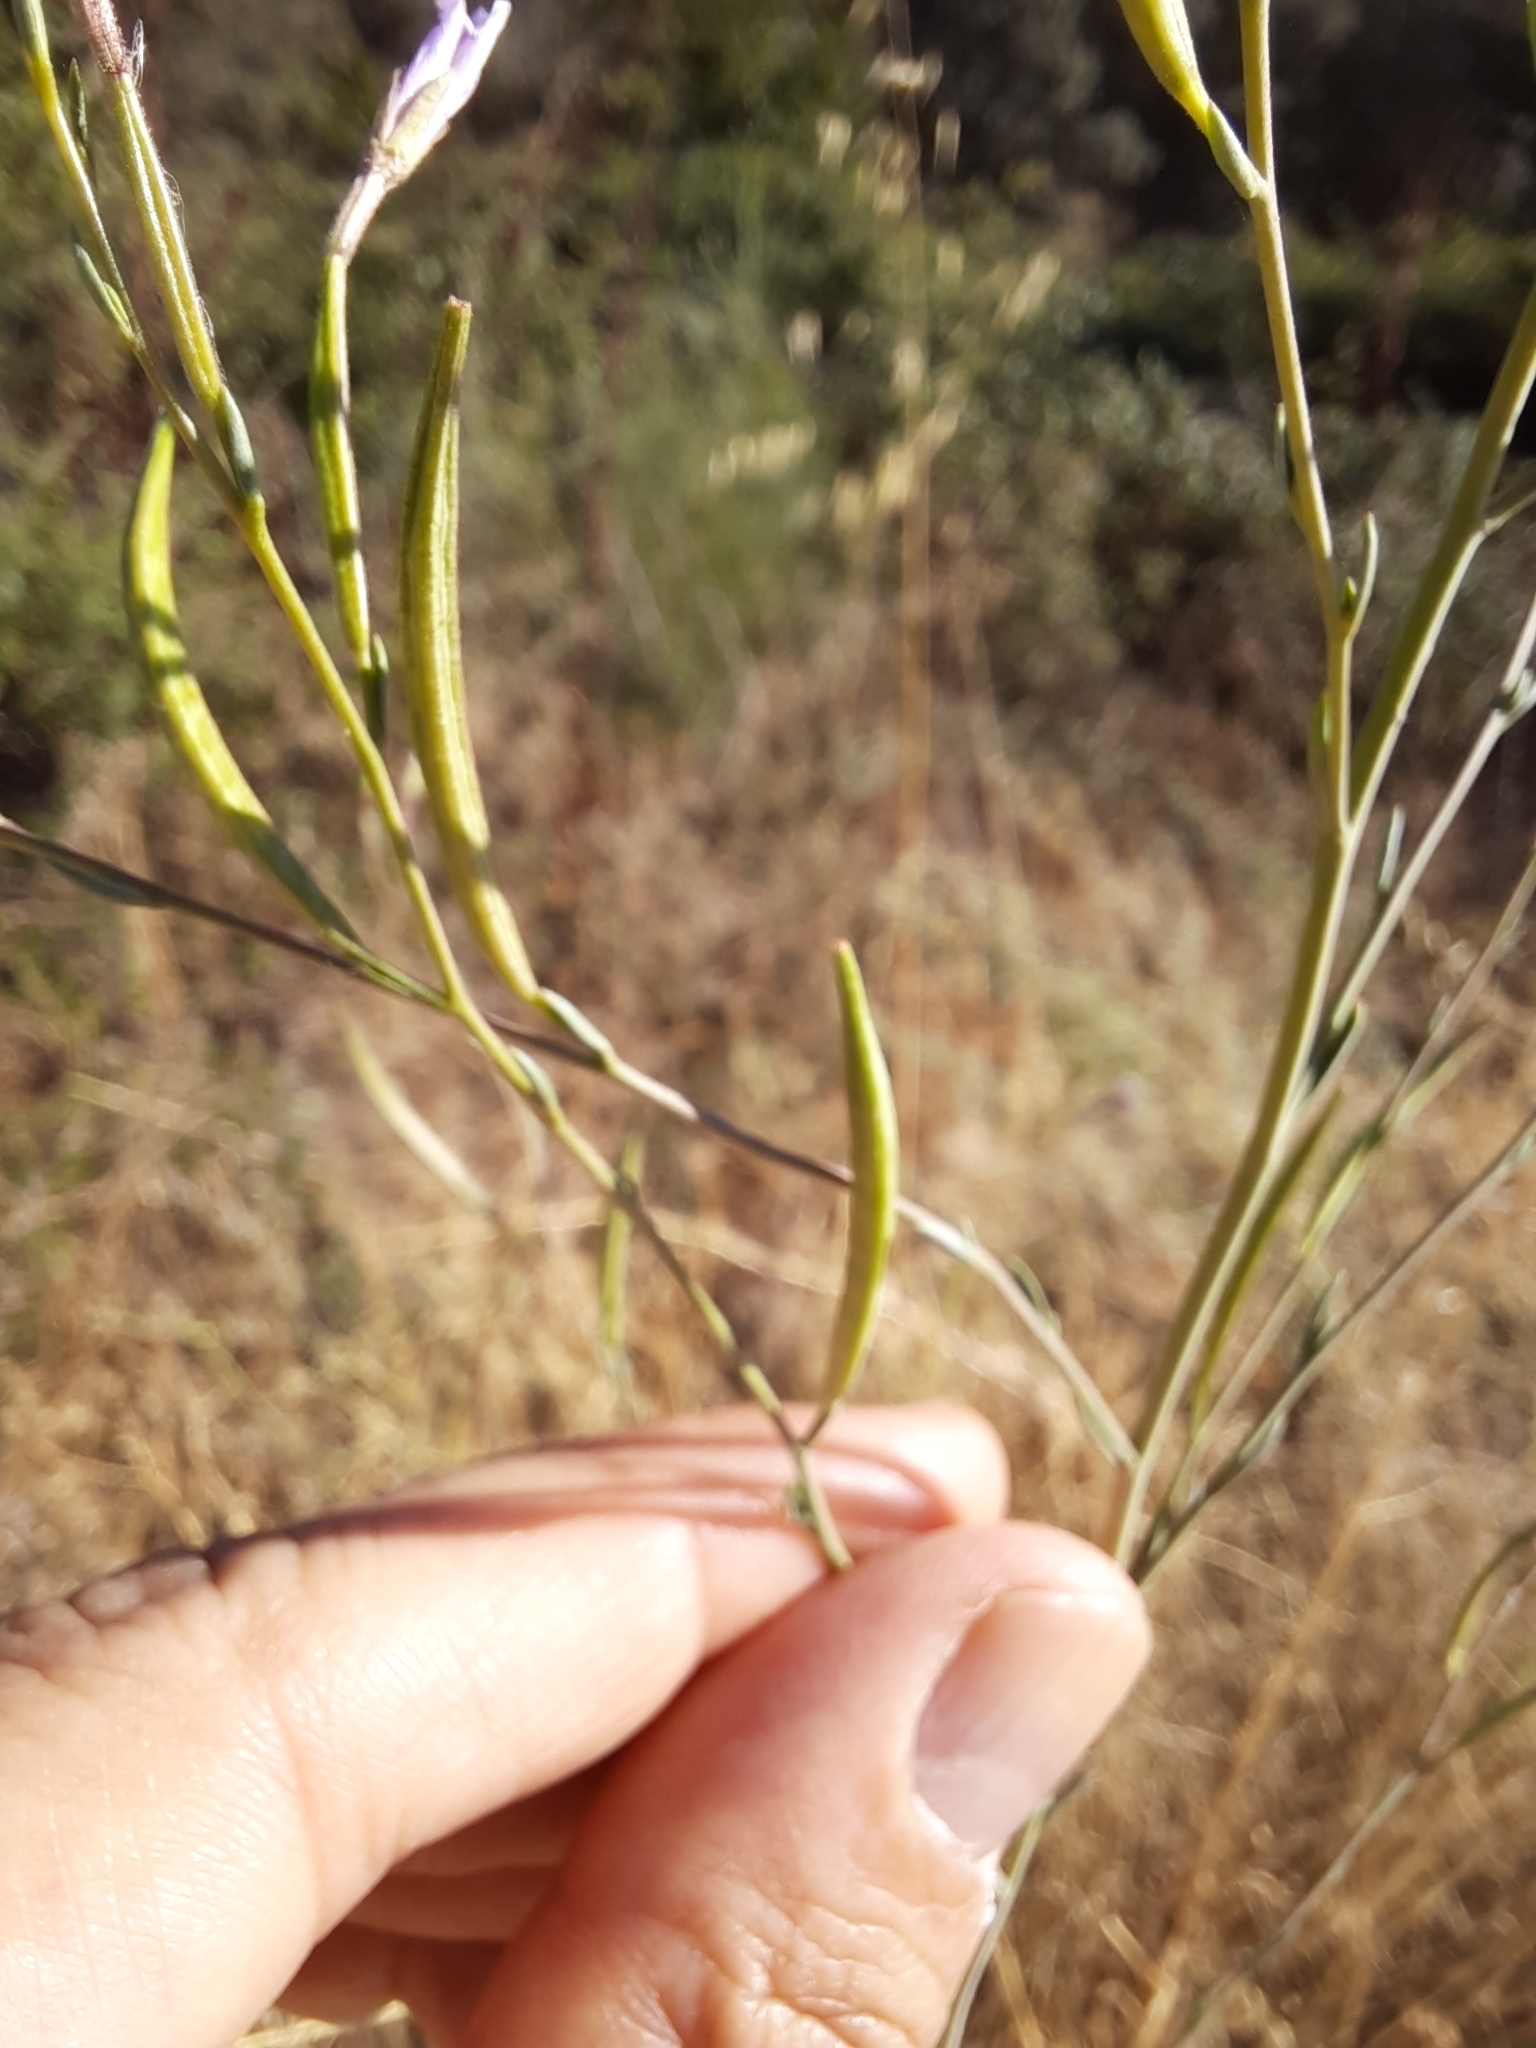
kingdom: Plantae
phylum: Tracheophyta
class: Magnoliopsida
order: Myrtales
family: Onagraceae
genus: Epilobium
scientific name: Epilobium brachycarpum
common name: Annual willowherb
